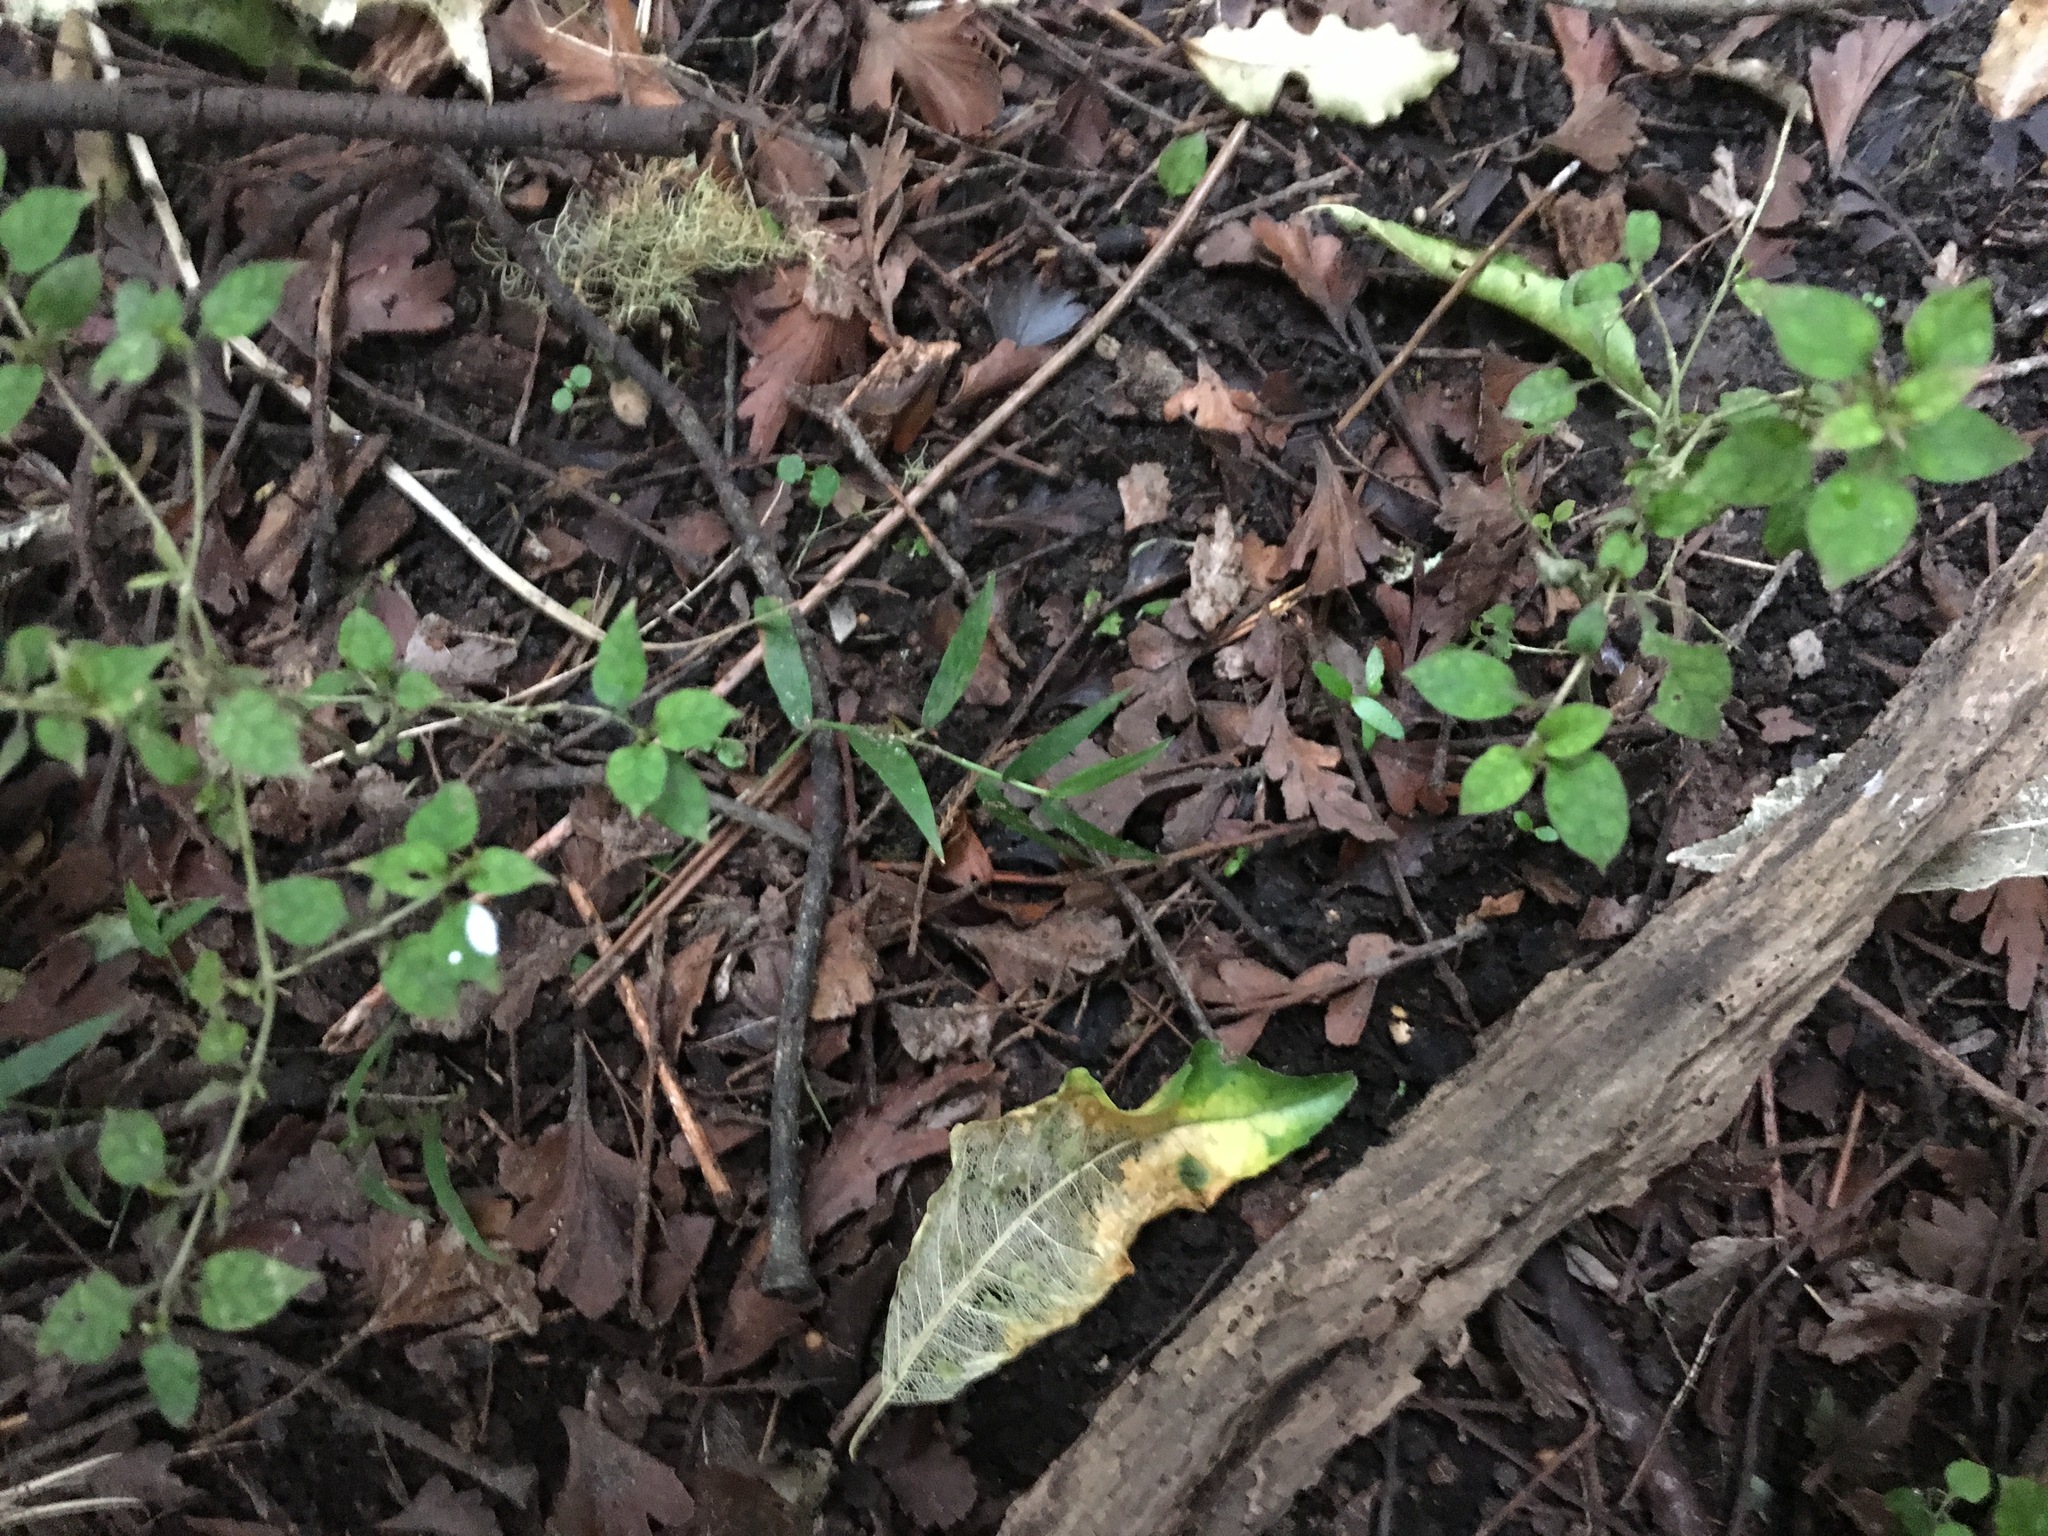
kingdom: Plantae
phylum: Tracheophyta
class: Magnoliopsida
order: Gentianales
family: Rubiaceae
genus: Coprosma
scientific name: Coprosma areolata
